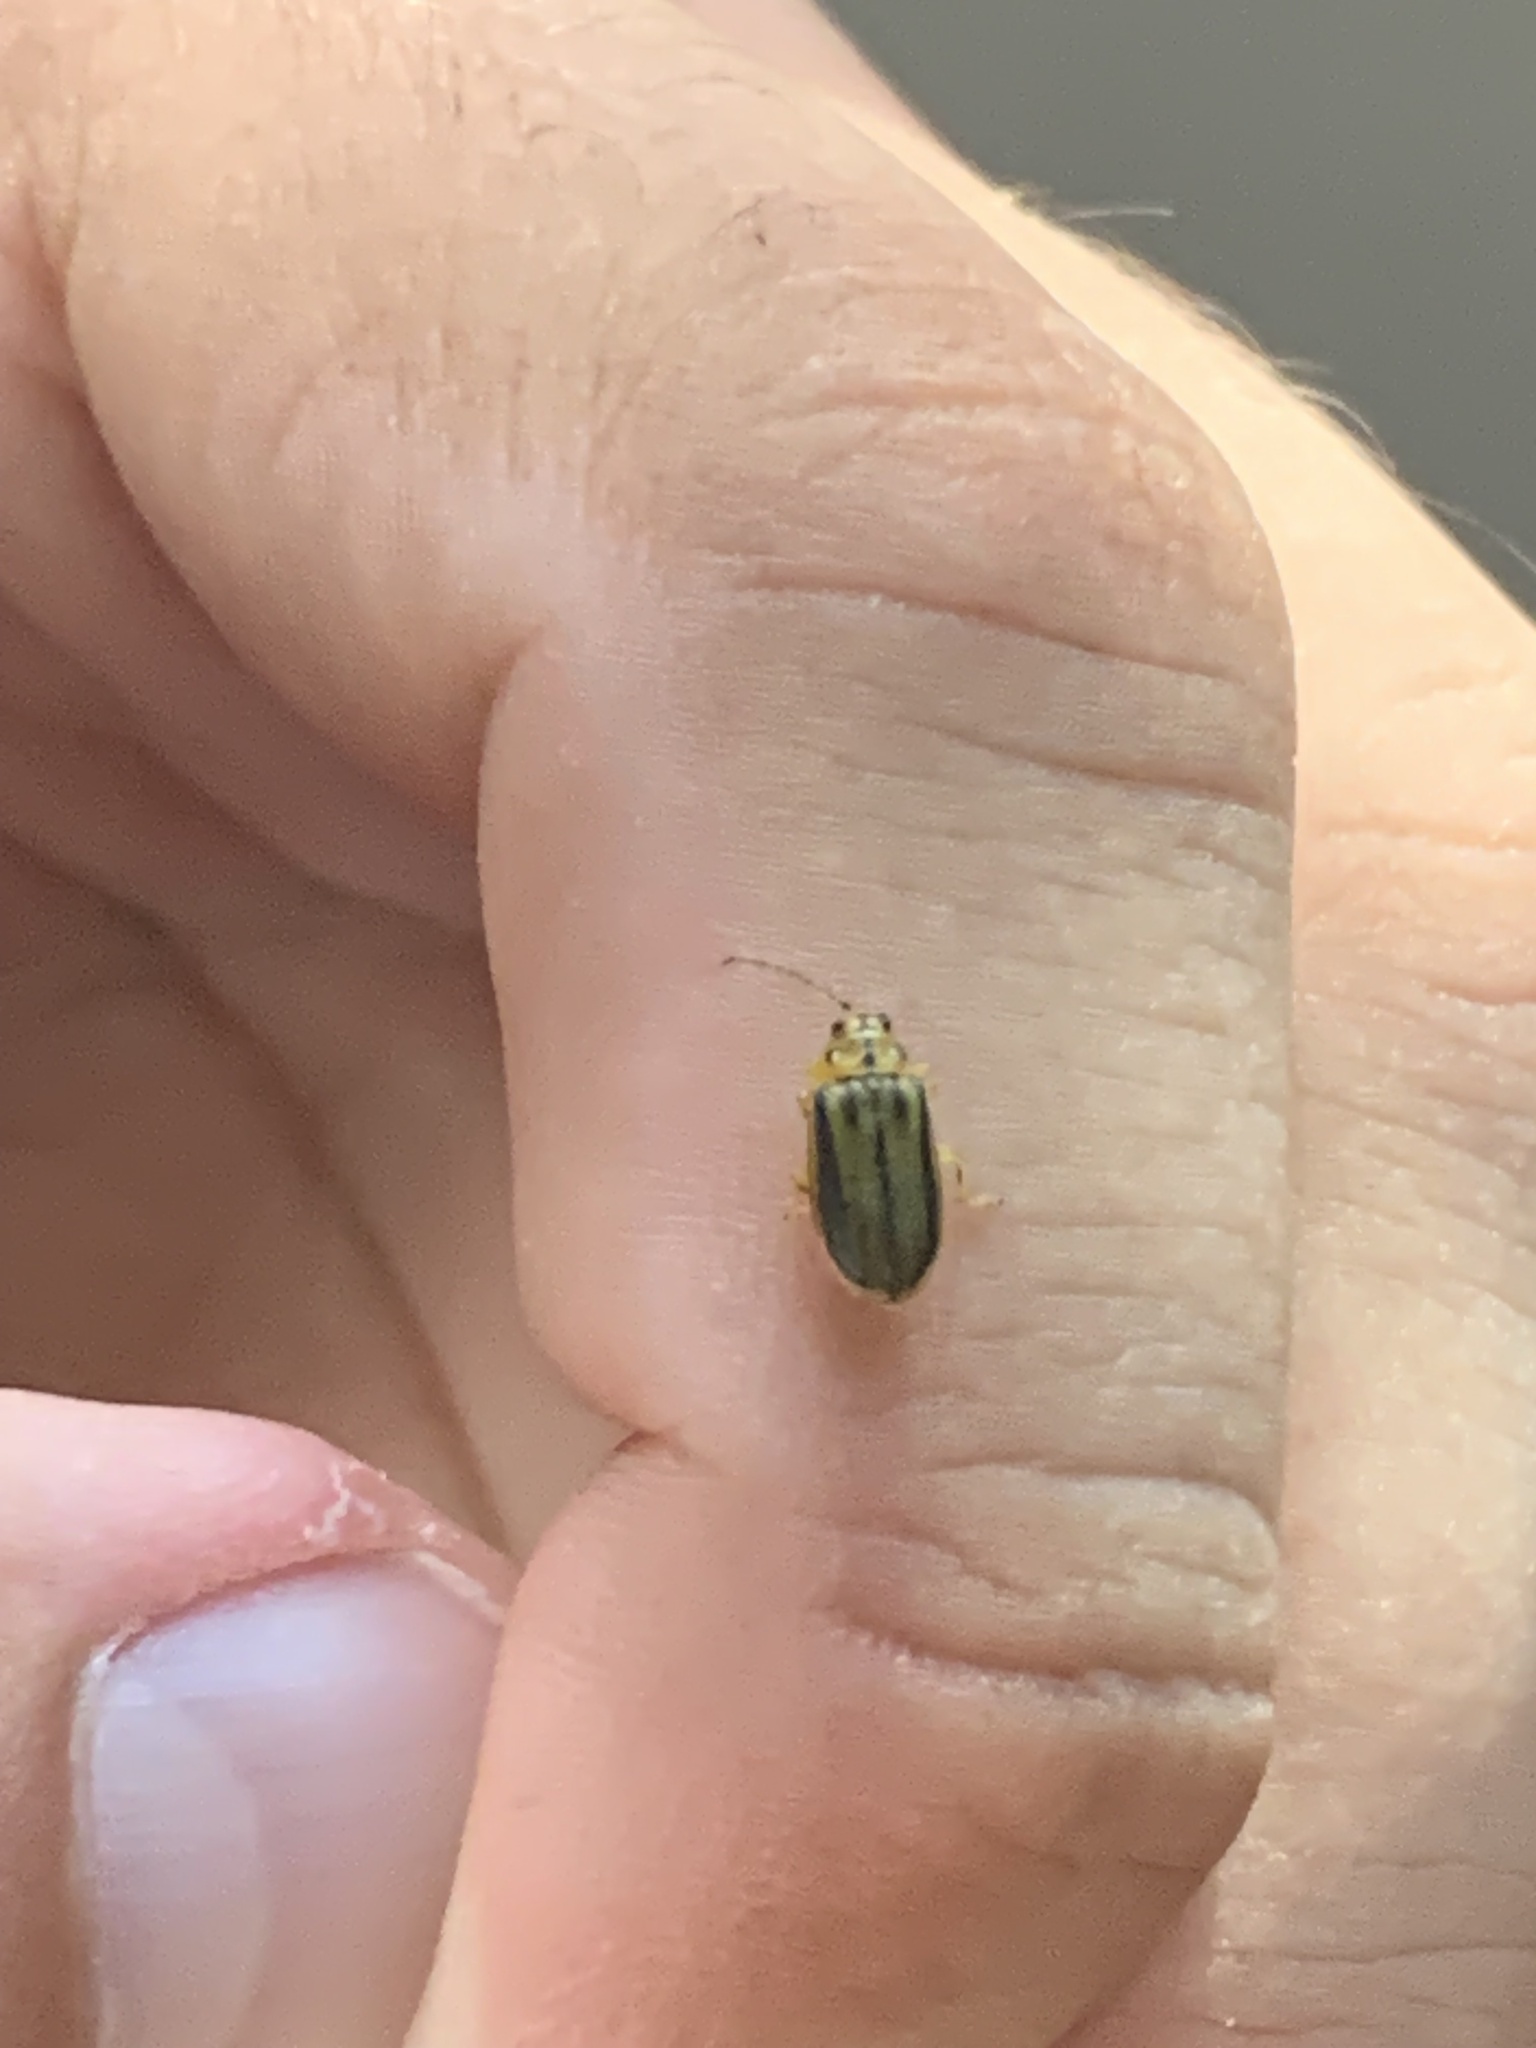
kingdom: Animalia
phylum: Arthropoda
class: Insecta
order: Coleoptera
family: Chrysomelidae
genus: Xanthogaleruca
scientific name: Xanthogaleruca luteola
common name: Elm leaf beetle
